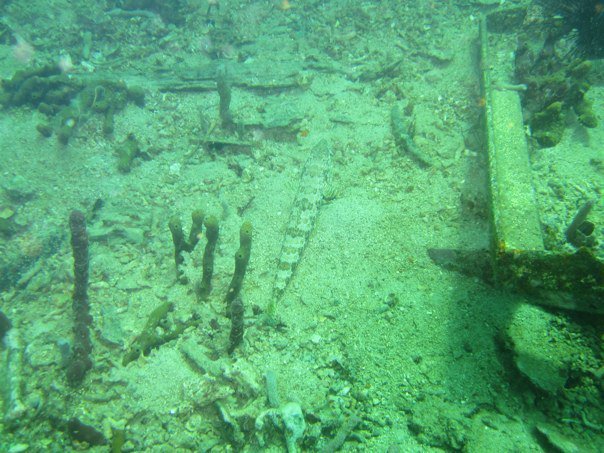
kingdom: Animalia
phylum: Chordata
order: Aulopiformes
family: Synodontidae
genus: Synodus
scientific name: Synodus intermedius
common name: Sand diver
